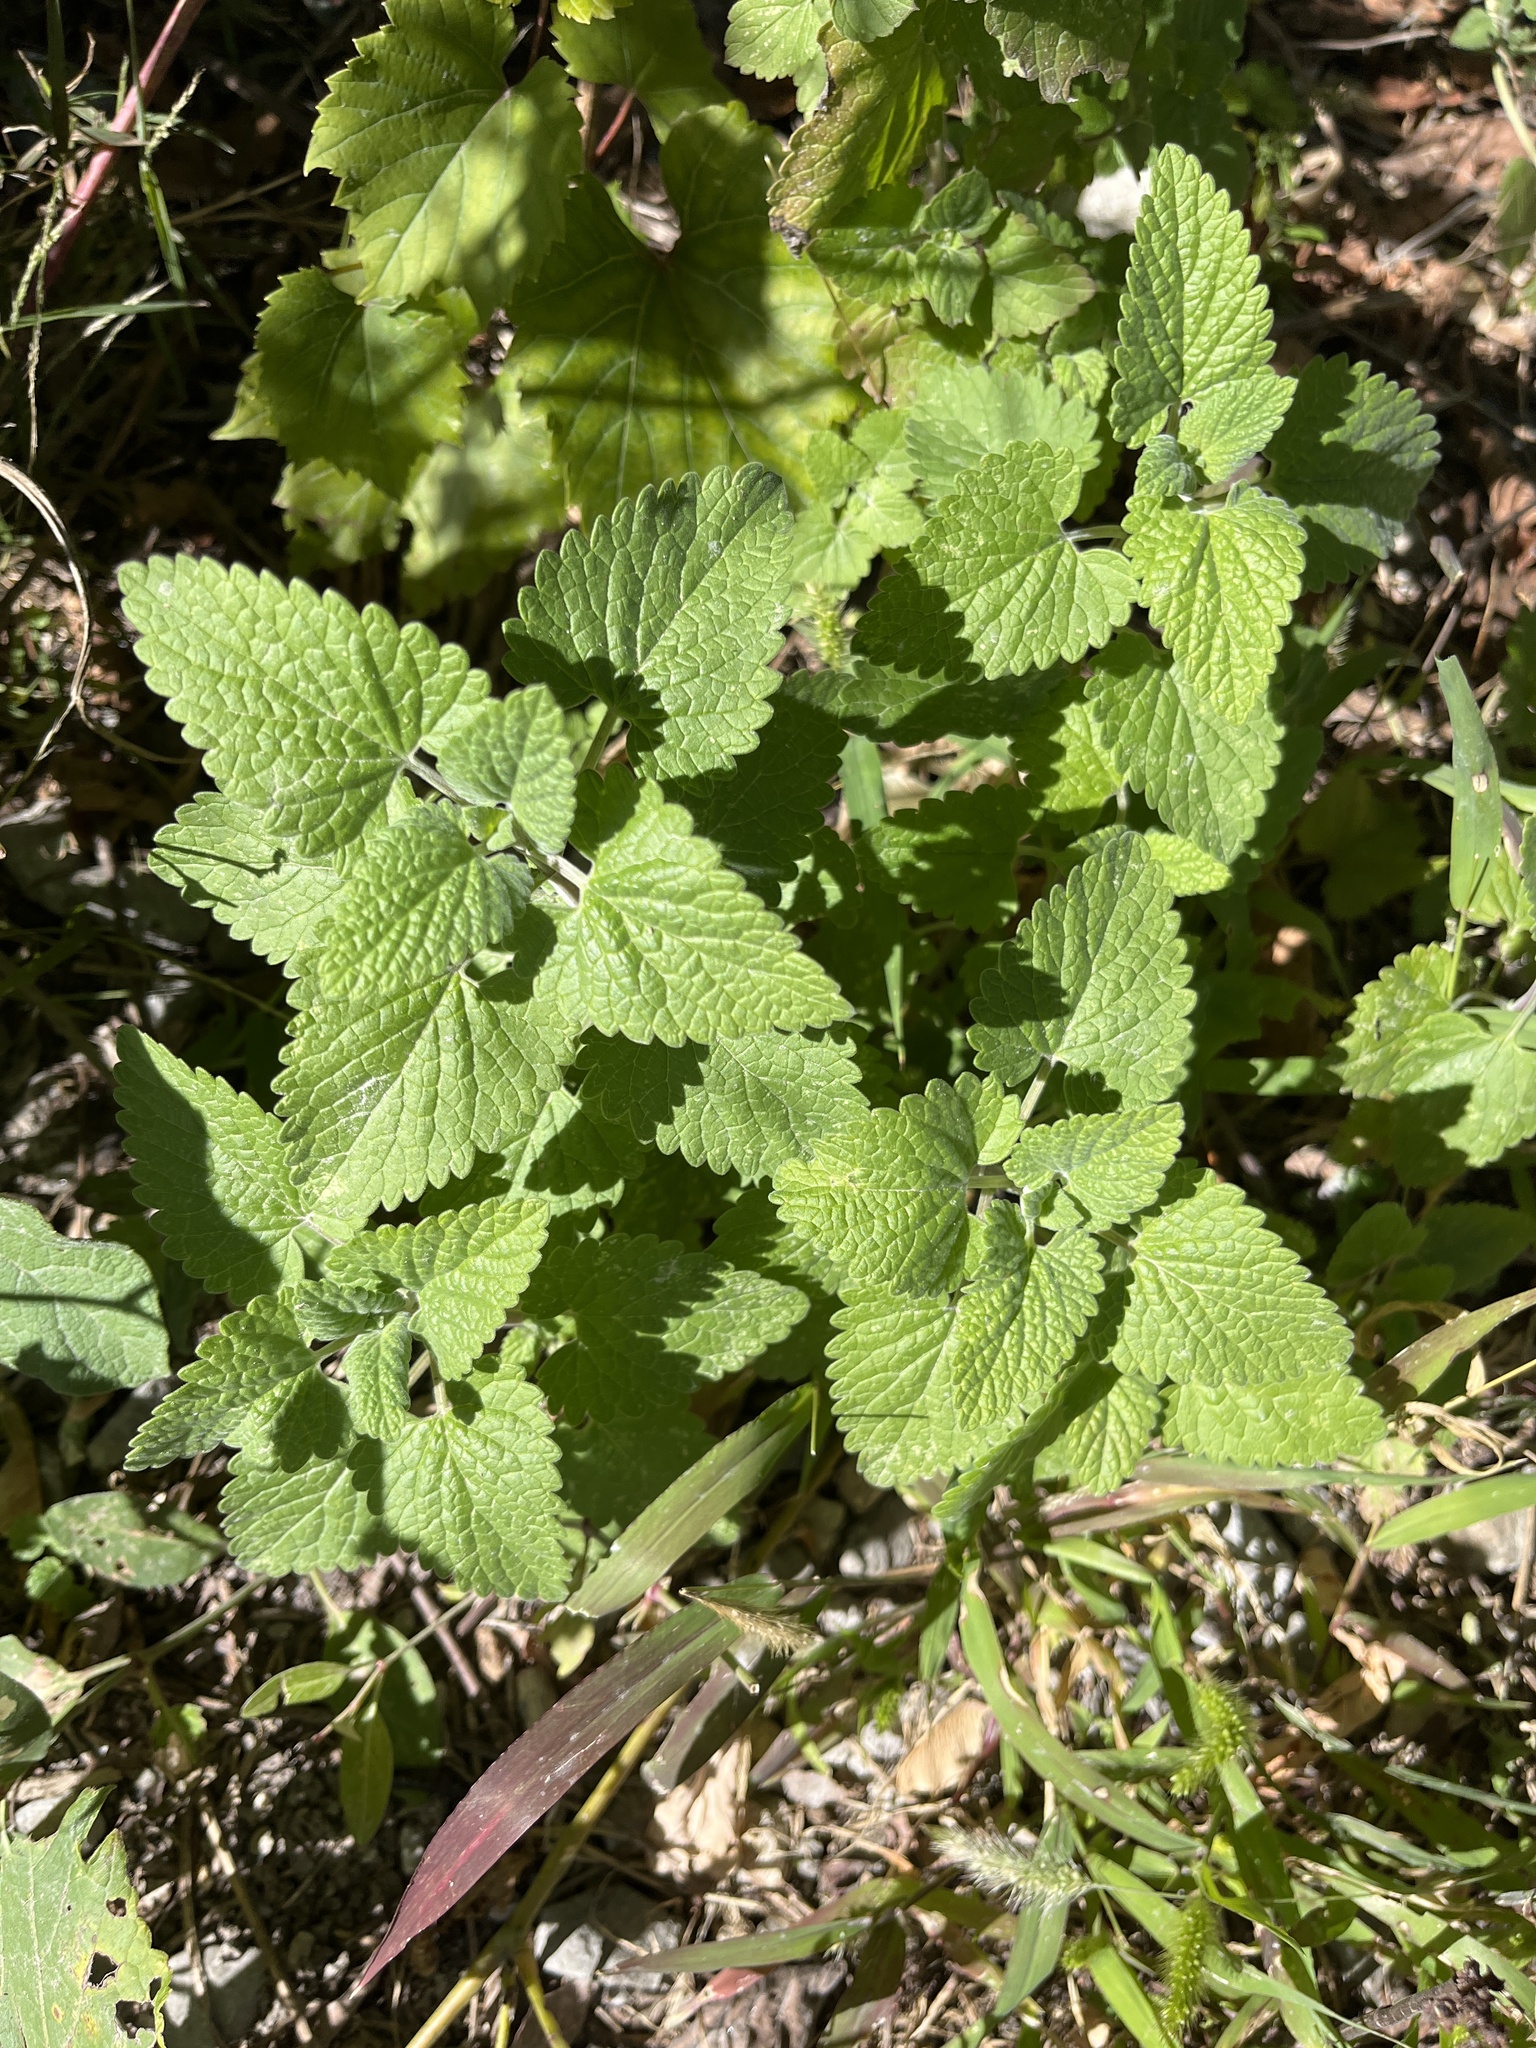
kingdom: Plantae
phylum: Tracheophyta
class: Magnoliopsida
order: Lamiales
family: Lamiaceae
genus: Nepeta
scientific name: Nepeta cataria
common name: Catnip
